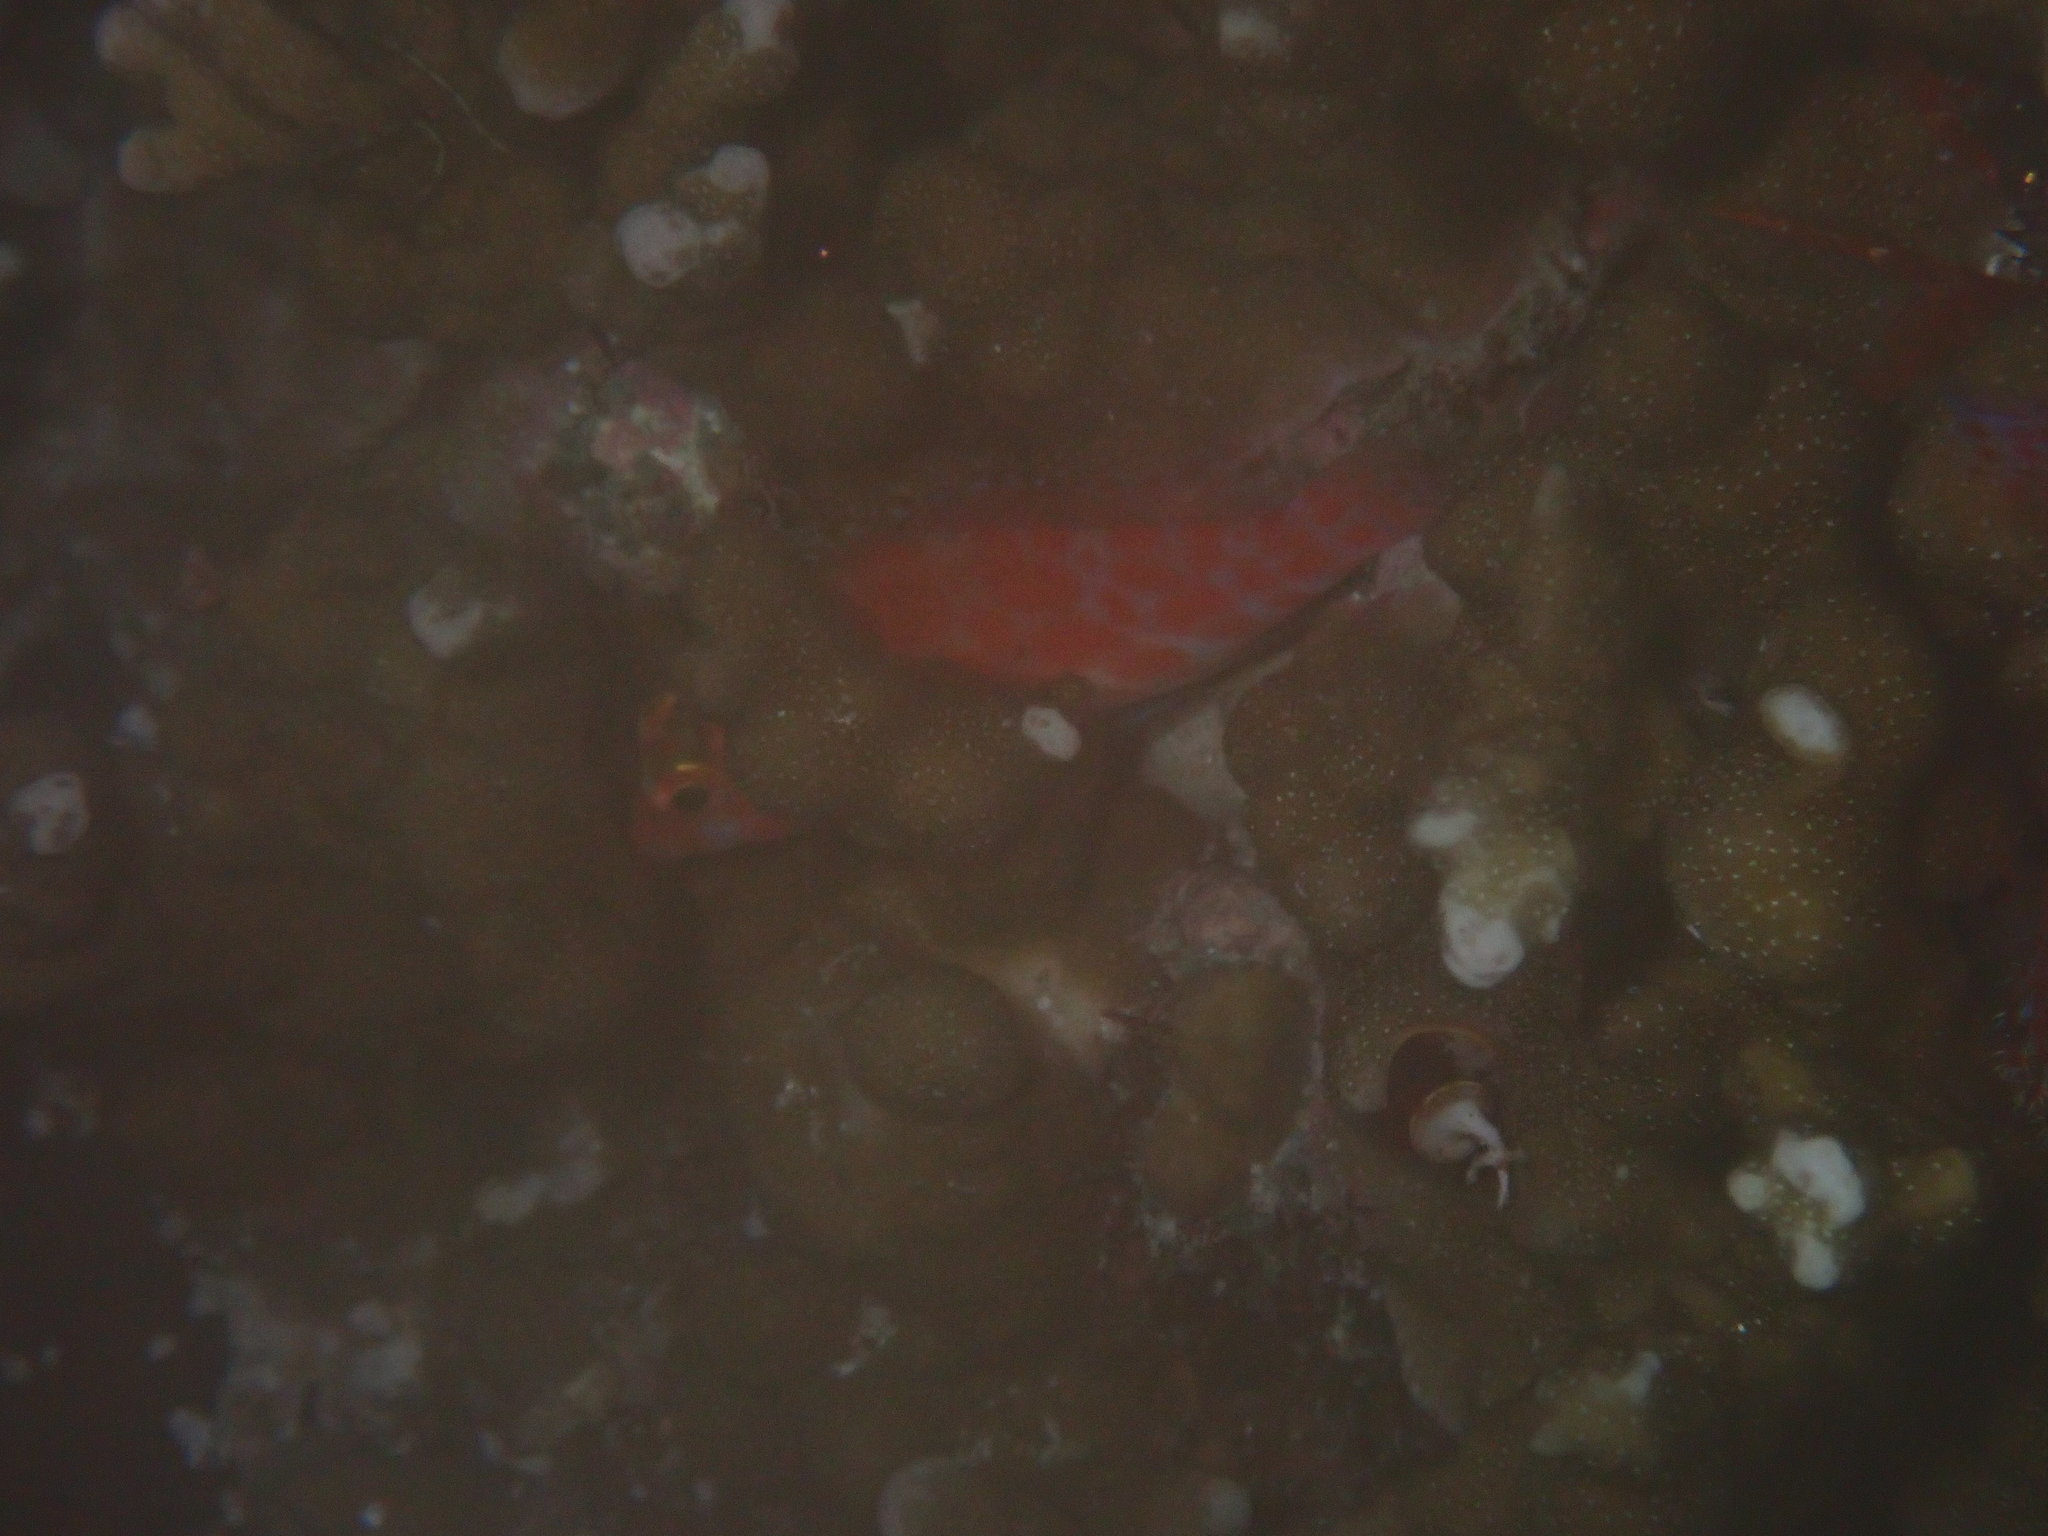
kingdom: Animalia
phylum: Chordata
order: Perciformes
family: Cirrhitidae
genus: Cirrhitichthys
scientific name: Cirrhitichthys oxycephalus
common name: Spotted hawkfish
